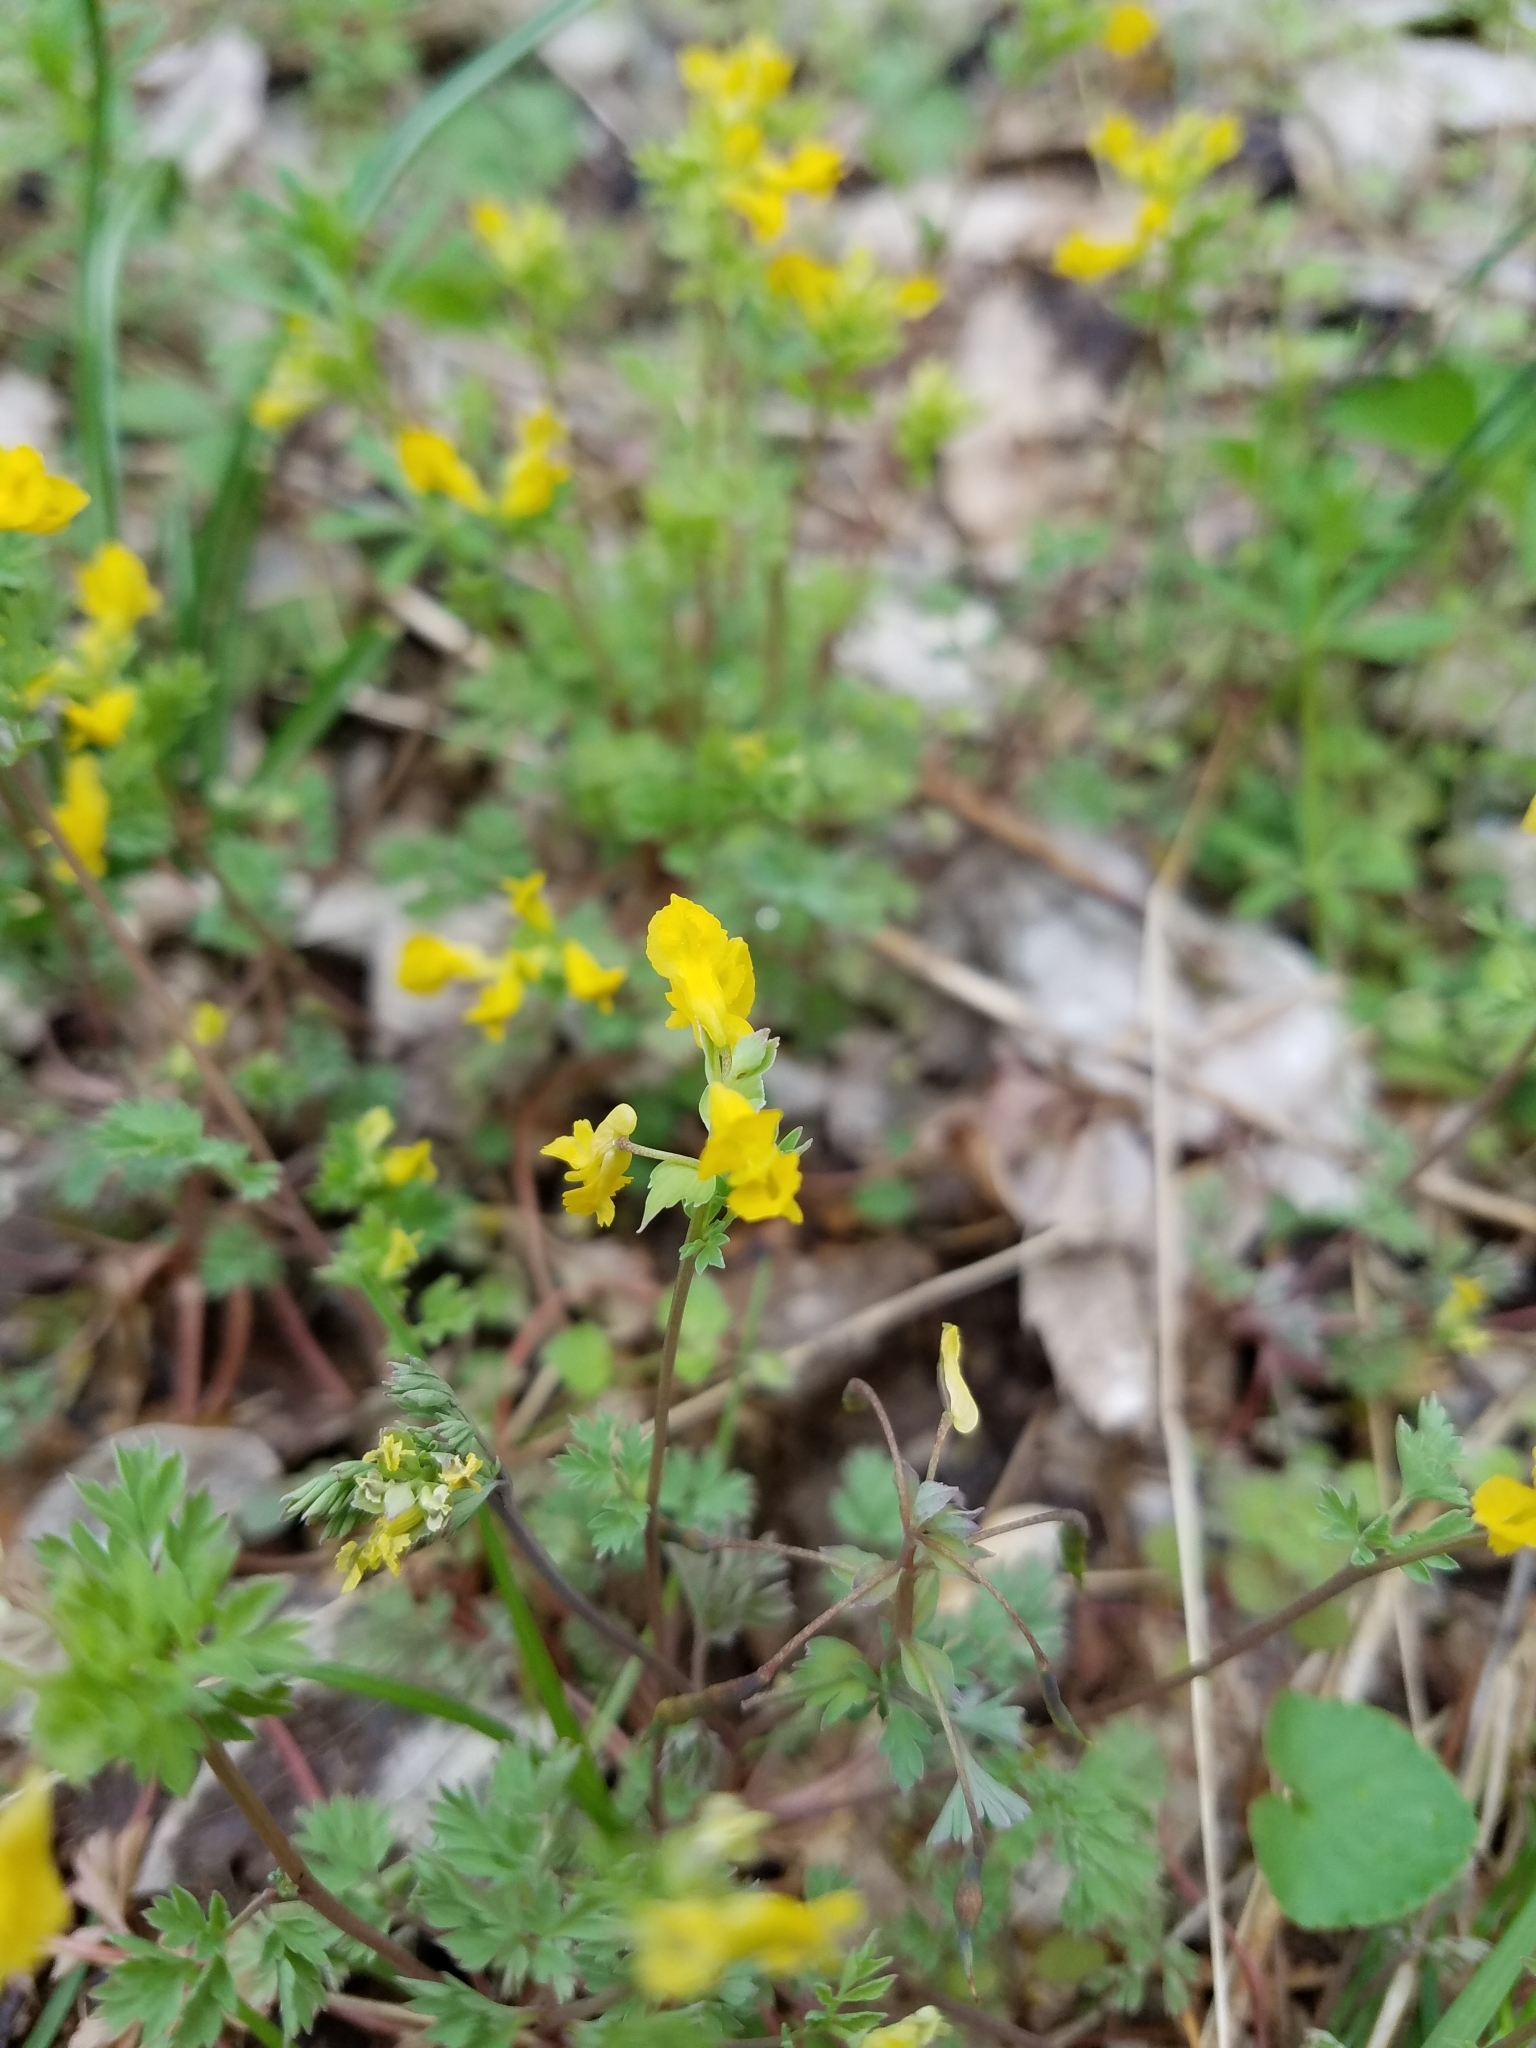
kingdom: Plantae
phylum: Tracheophyta
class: Magnoliopsida
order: Ranunculales
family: Papaveraceae
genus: Corydalis
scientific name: Corydalis flavula
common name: Yellow corydalis
